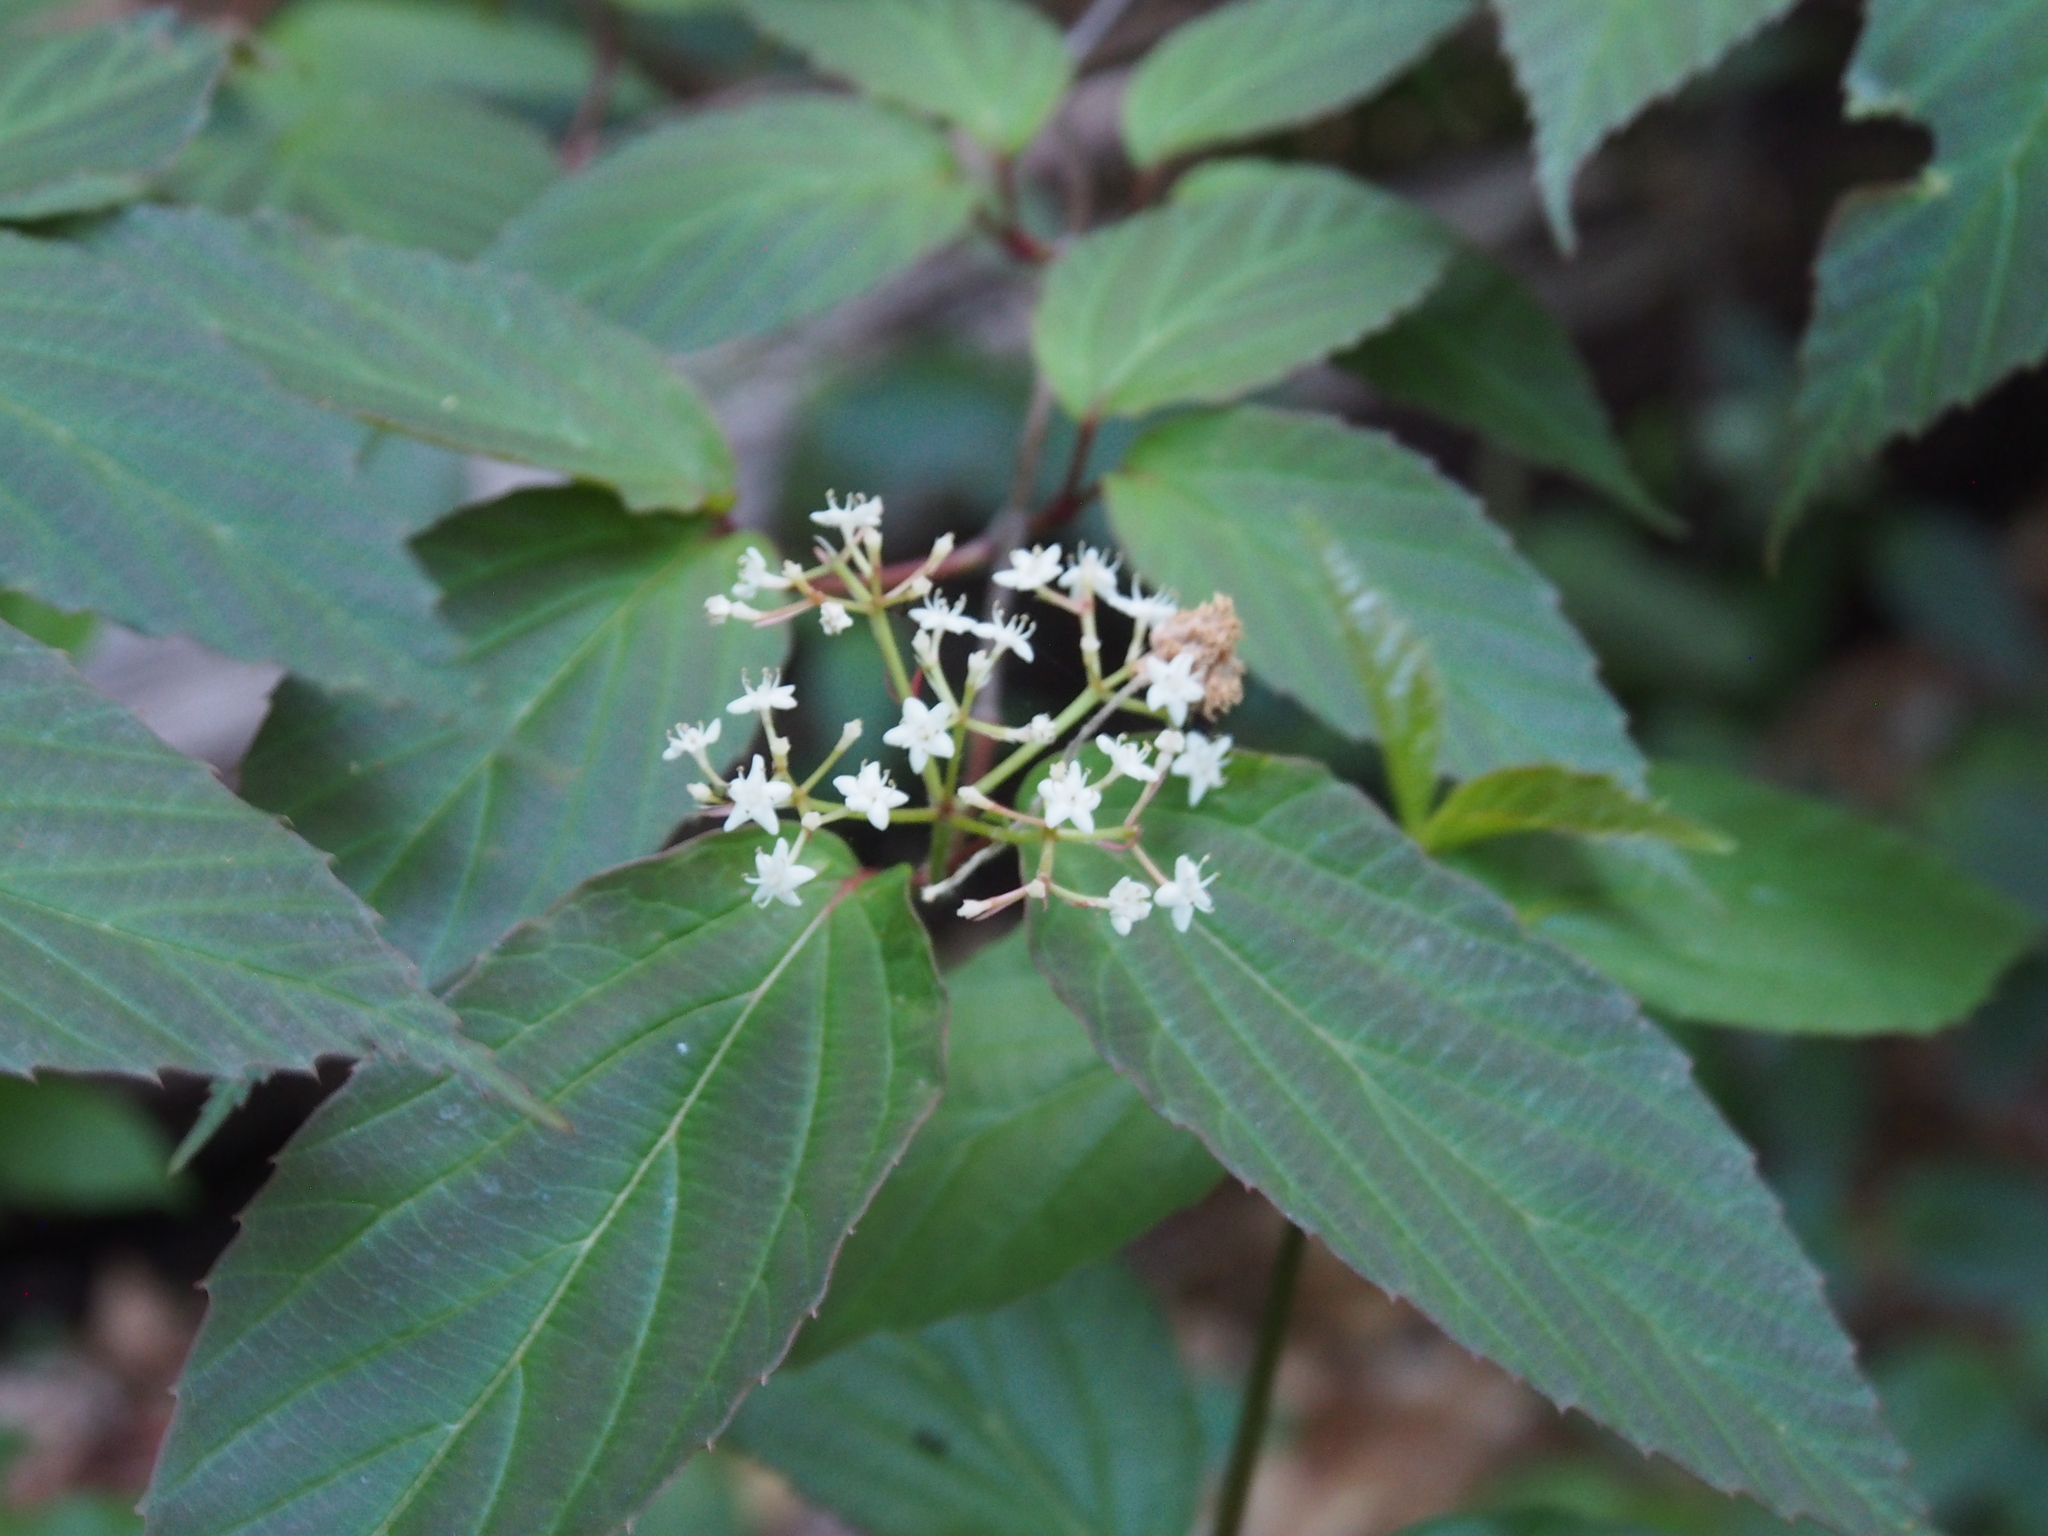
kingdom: Plantae
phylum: Tracheophyta
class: Magnoliopsida
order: Dipsacales
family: Viburnaceae
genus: Viburnum
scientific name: Viburnum setigerum
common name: Tea viburnum
